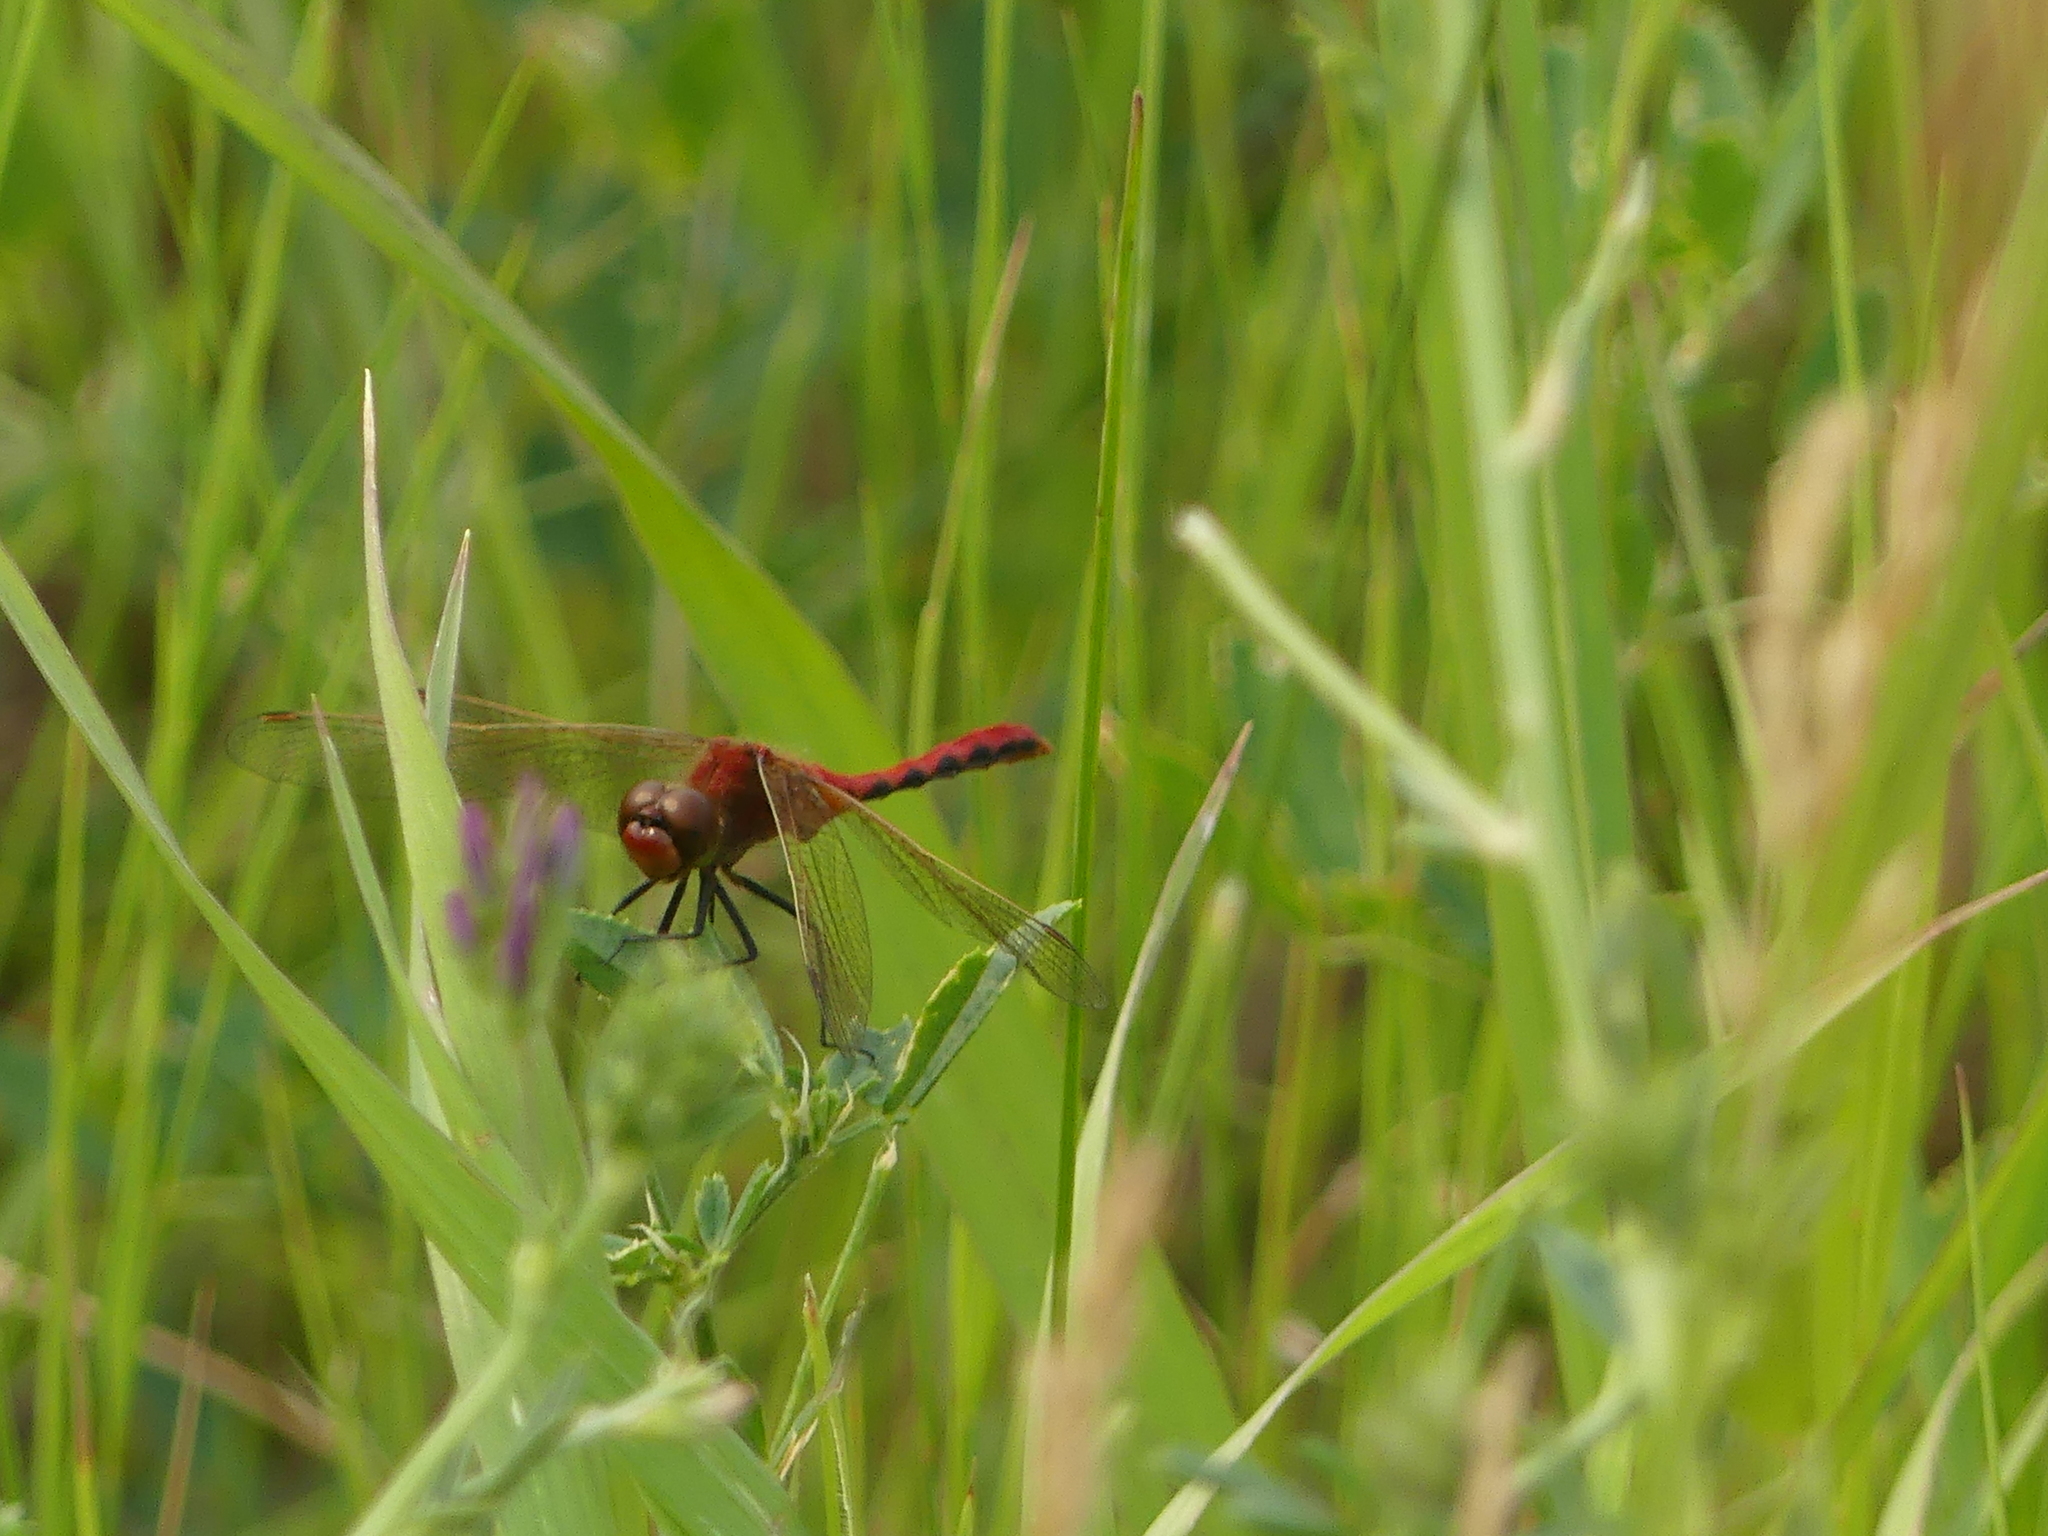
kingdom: Animalia
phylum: Arthropoda
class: Insecta
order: Odonata
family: Libellulidae
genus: Sympetrum
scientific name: Sympetrum internum
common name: Cherry-faced meadowhawk
